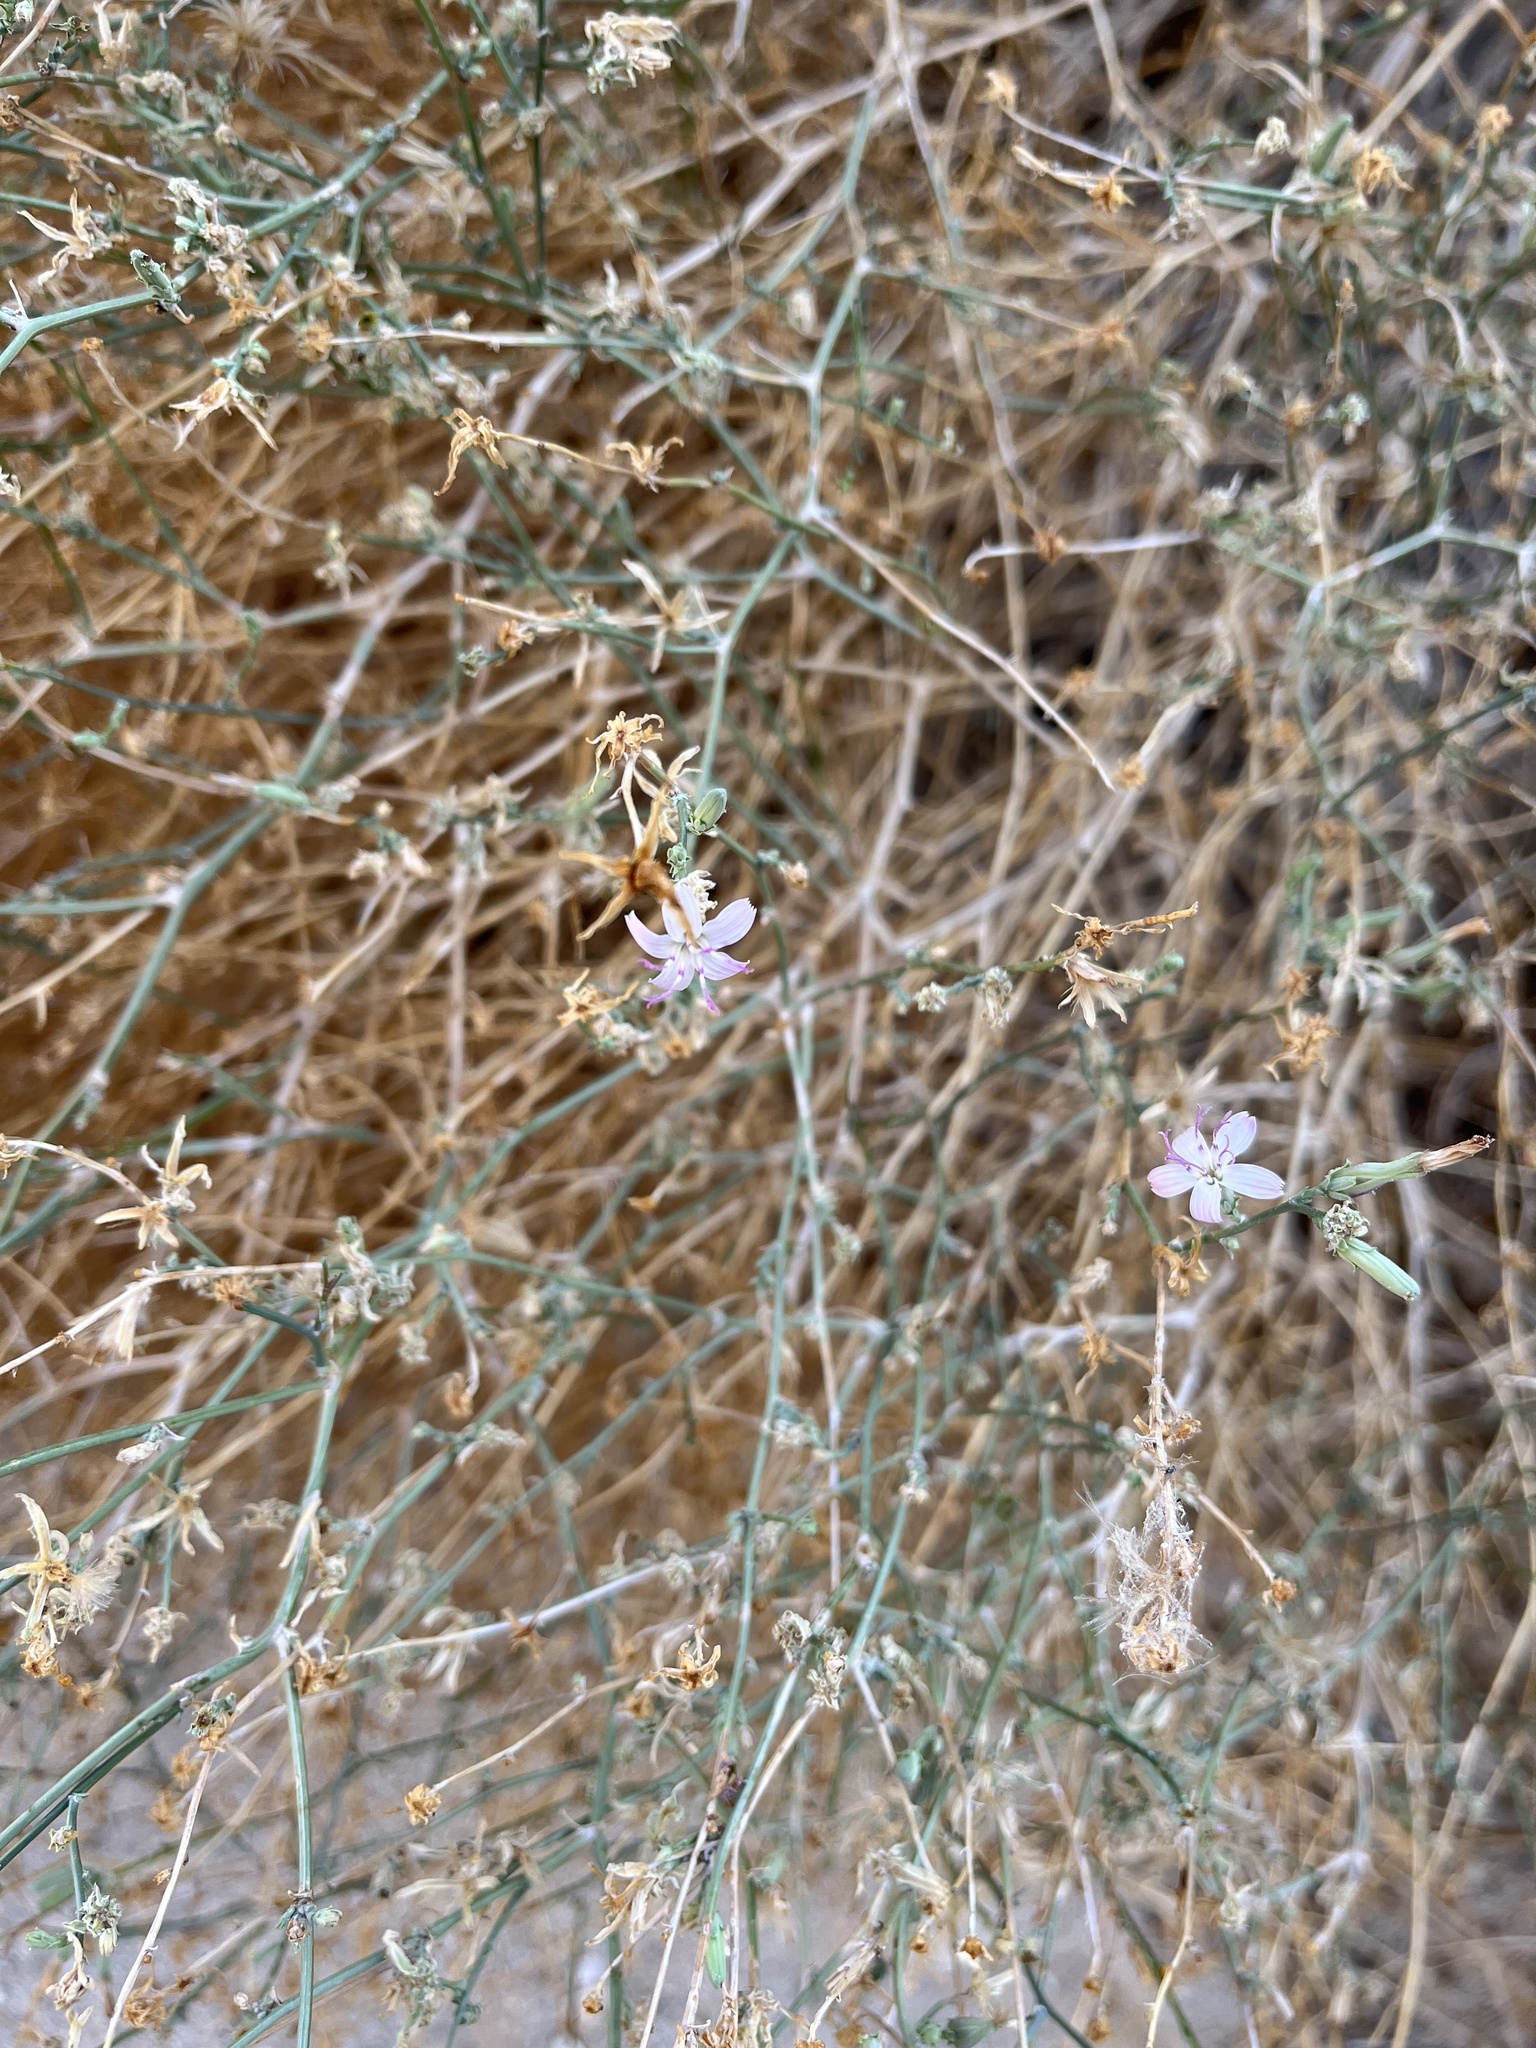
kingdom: Plantae
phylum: Tracheophyta
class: Magnoliopsida
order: Asterales
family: Asteraceae
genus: Stephanomeria
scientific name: Stephanomeria pauciflora
